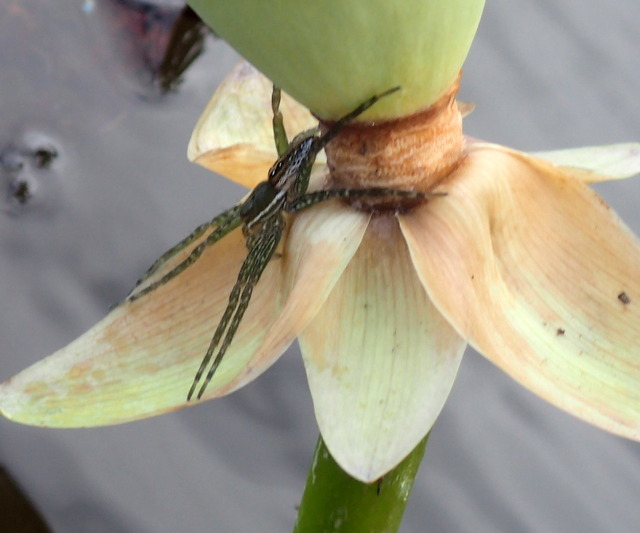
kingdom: Animalia
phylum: Arthropoda
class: Arachnida
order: Araneae
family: Pisauridae
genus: Dolomedes
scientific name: Dolomedes triton
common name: Six-spotted fishing spider
